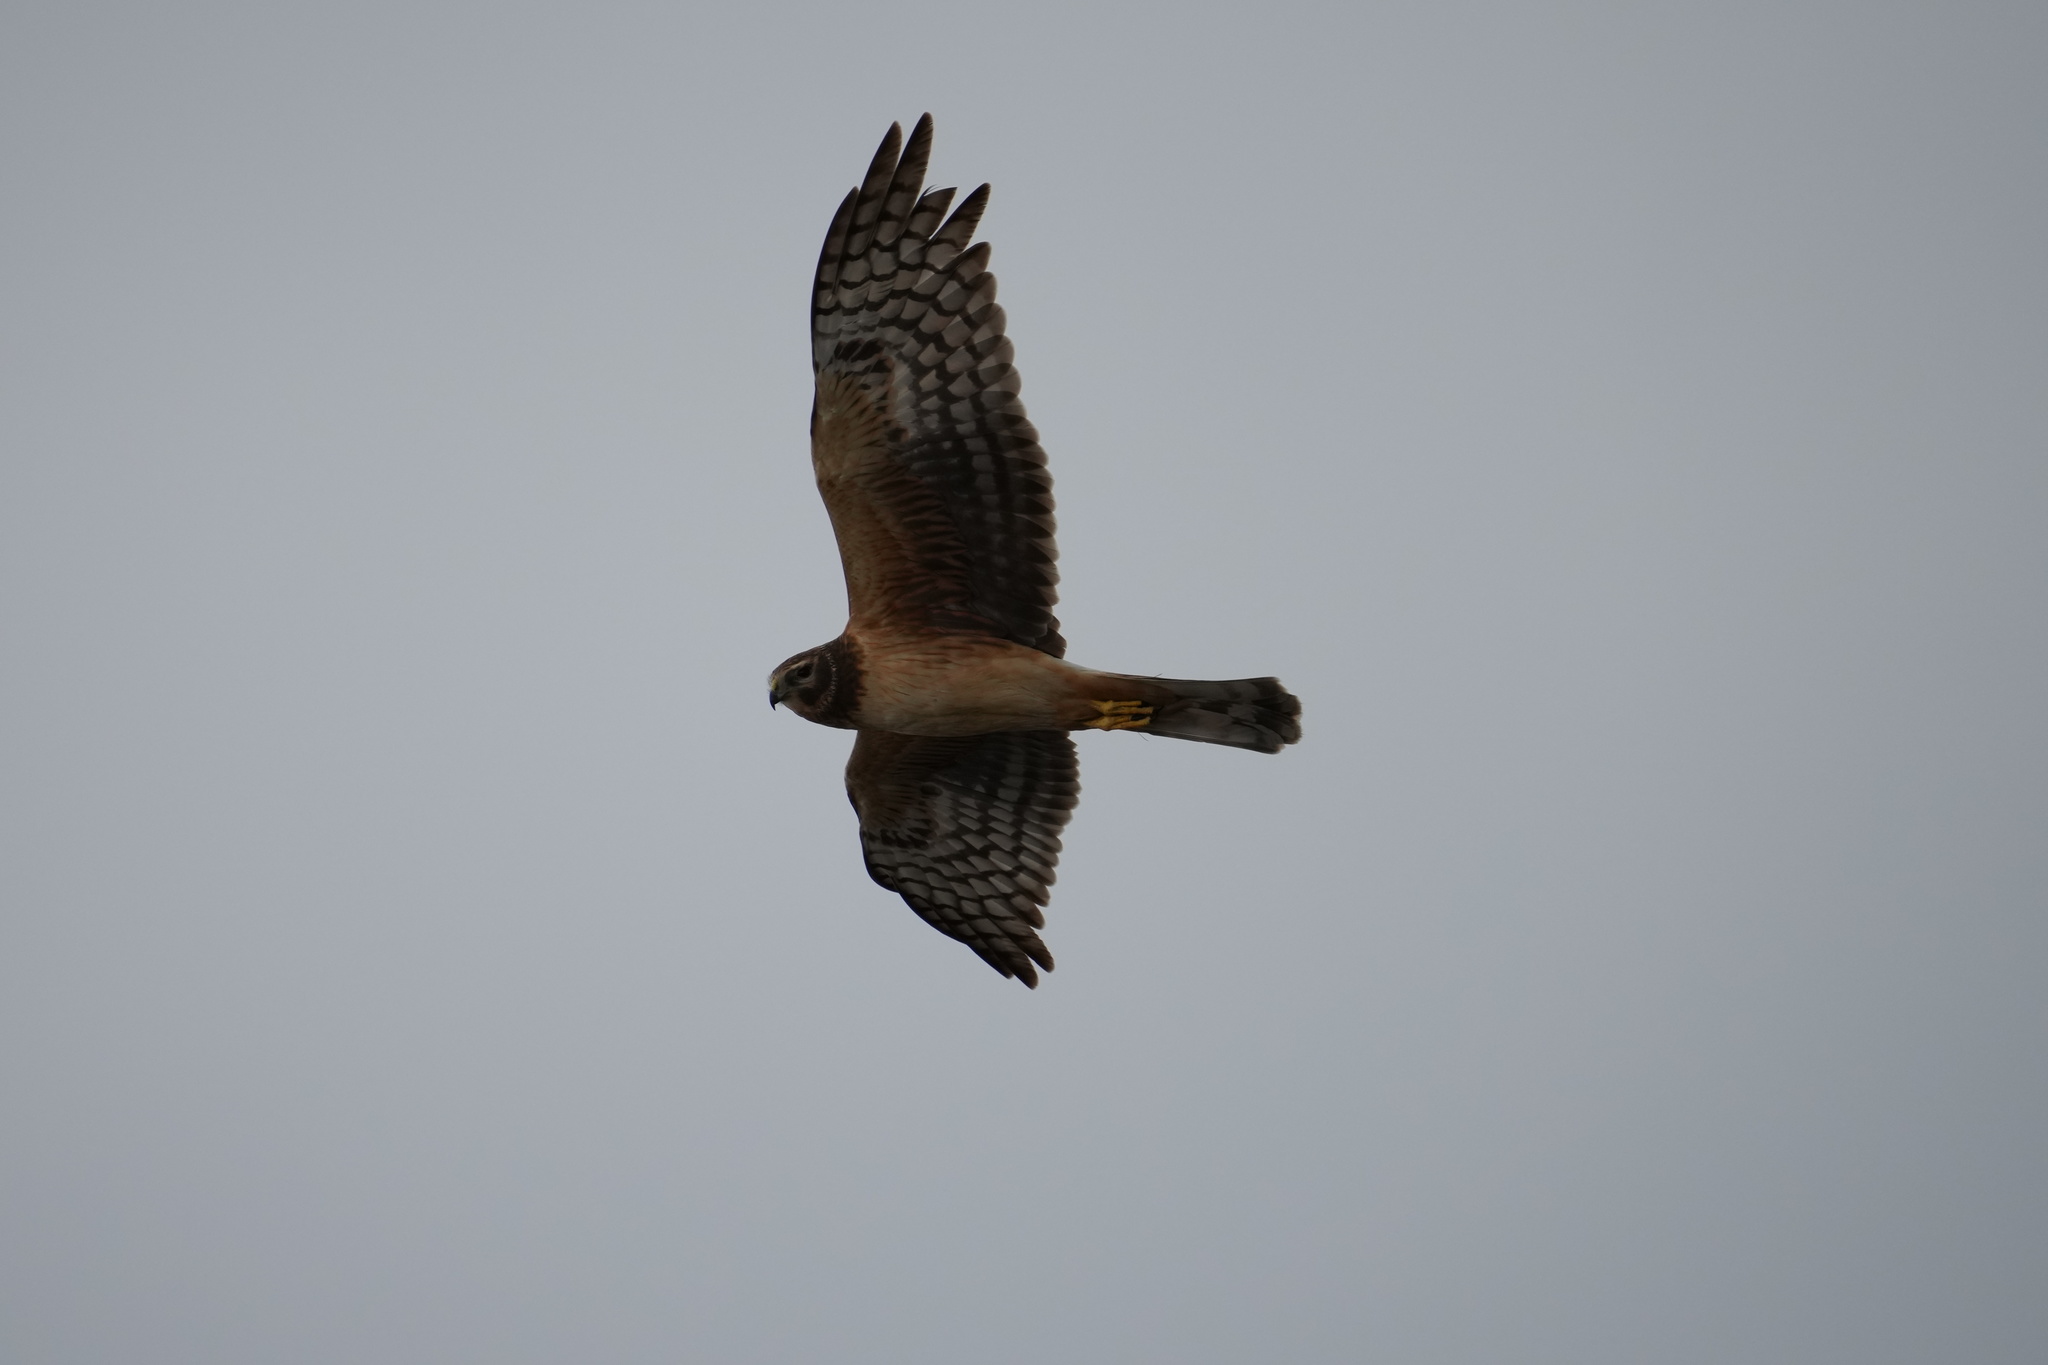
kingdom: Animalia
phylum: Chordata
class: Aves
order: Accipitriformes
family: Accipitridae
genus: Circus
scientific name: Circus cyaneus
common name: Hen harrier
